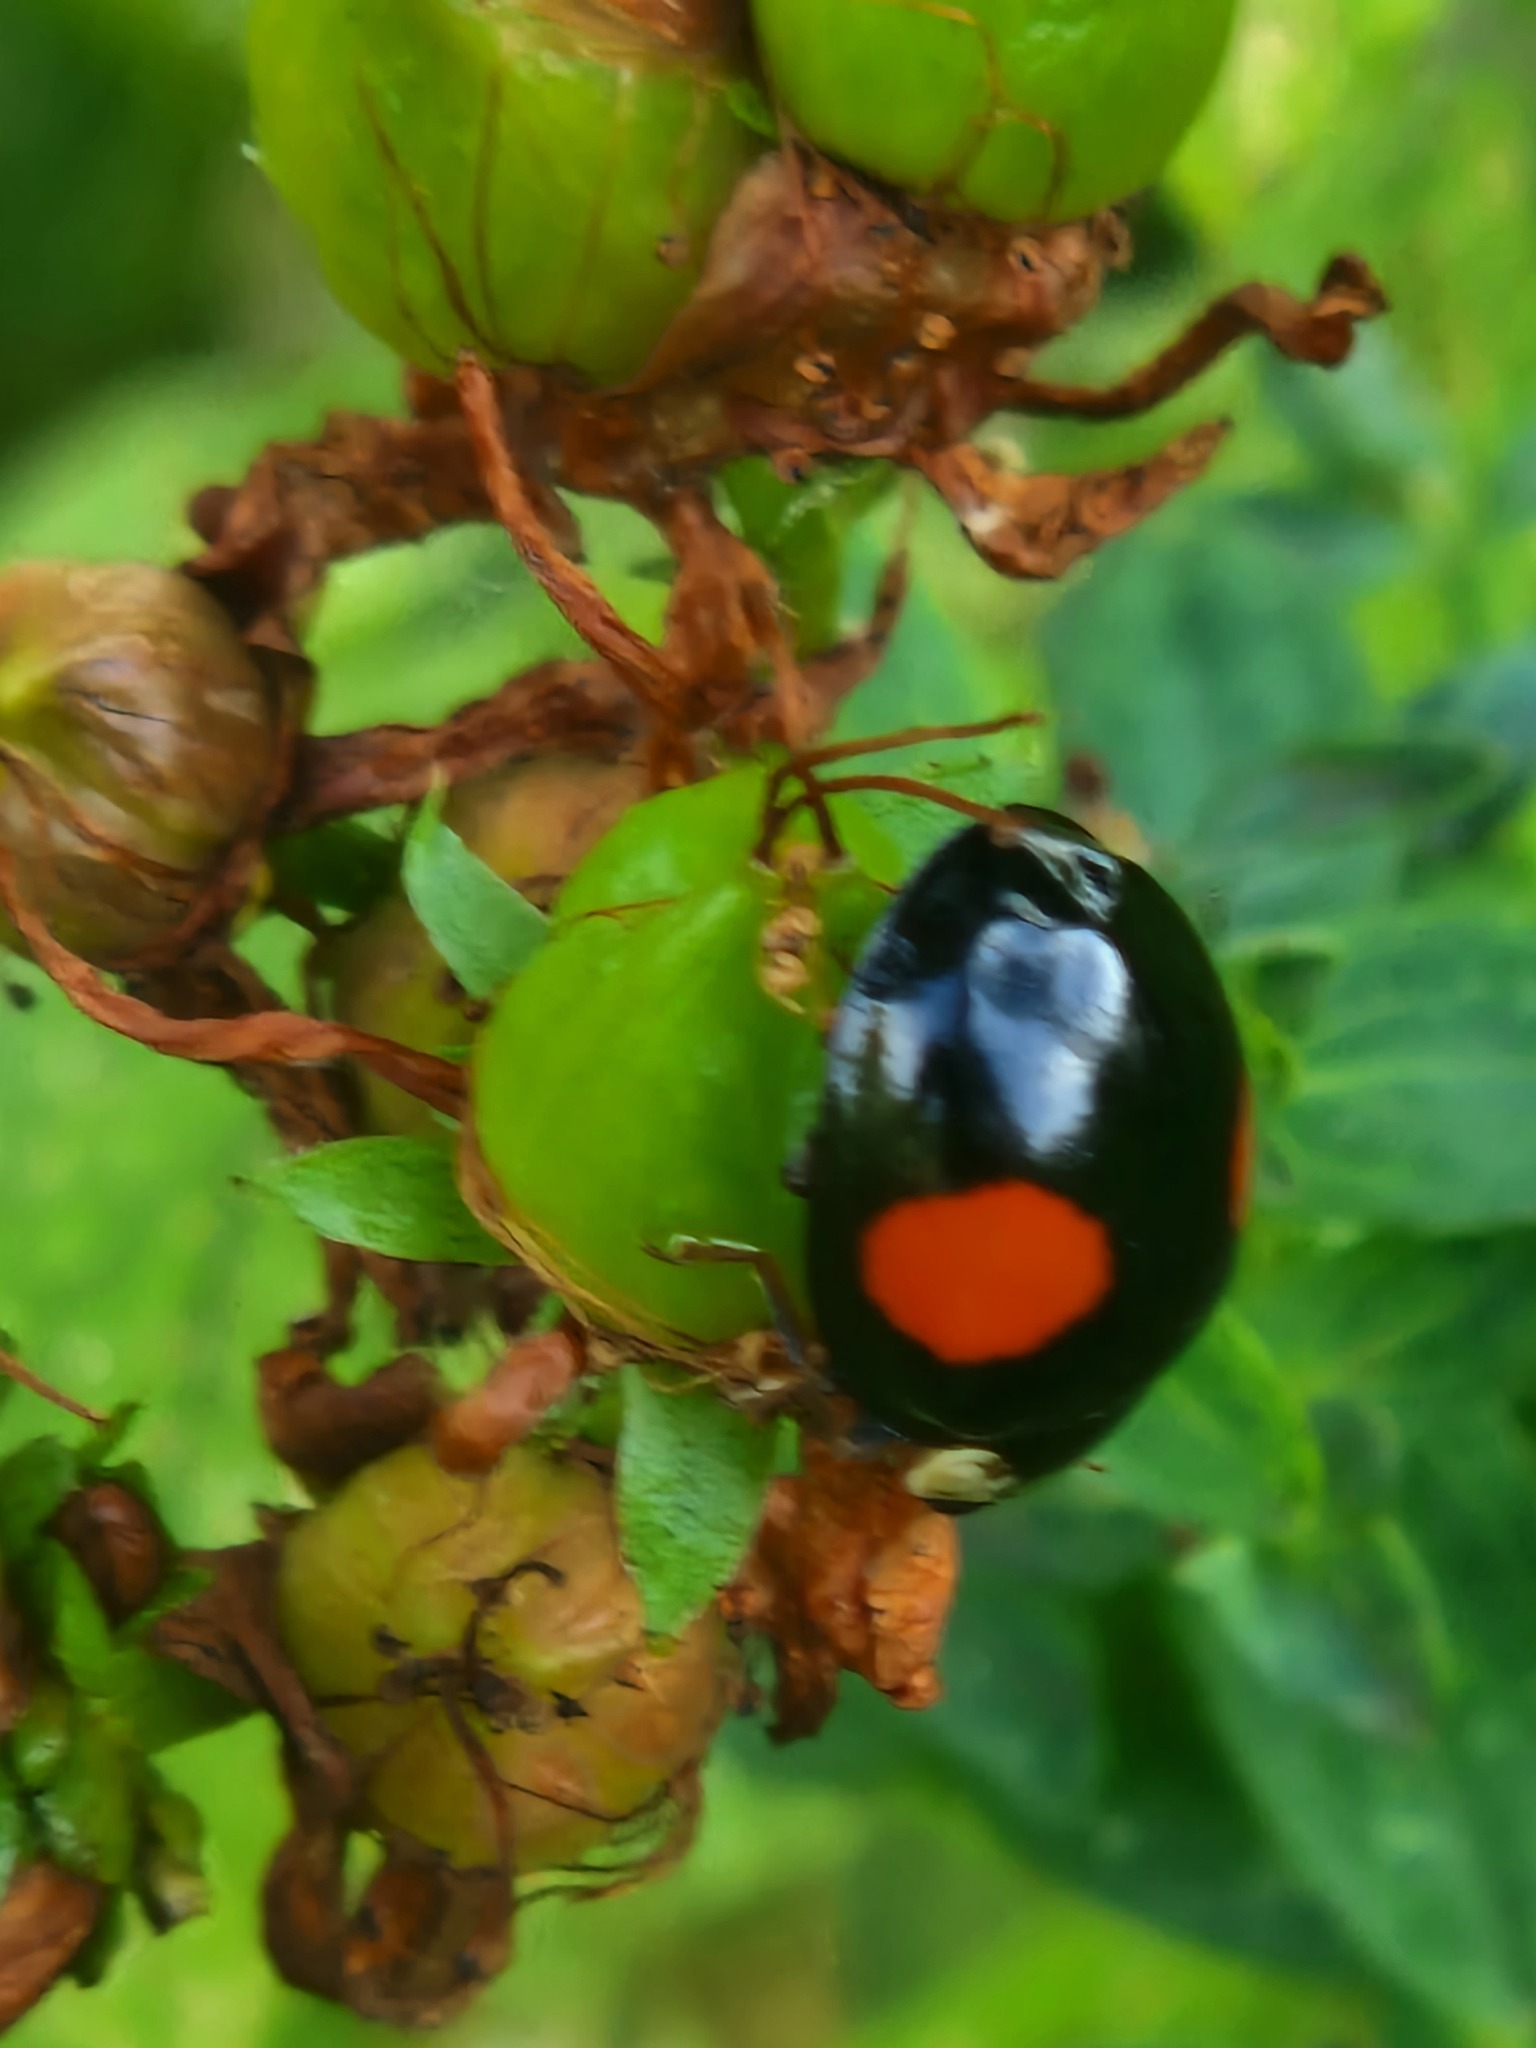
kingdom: Animalia
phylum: Arthropoda
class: Insecta
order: Coleoptera
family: Coccinellidae
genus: Harmonia
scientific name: Harmonia axyridis
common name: Harlequin ladybird
